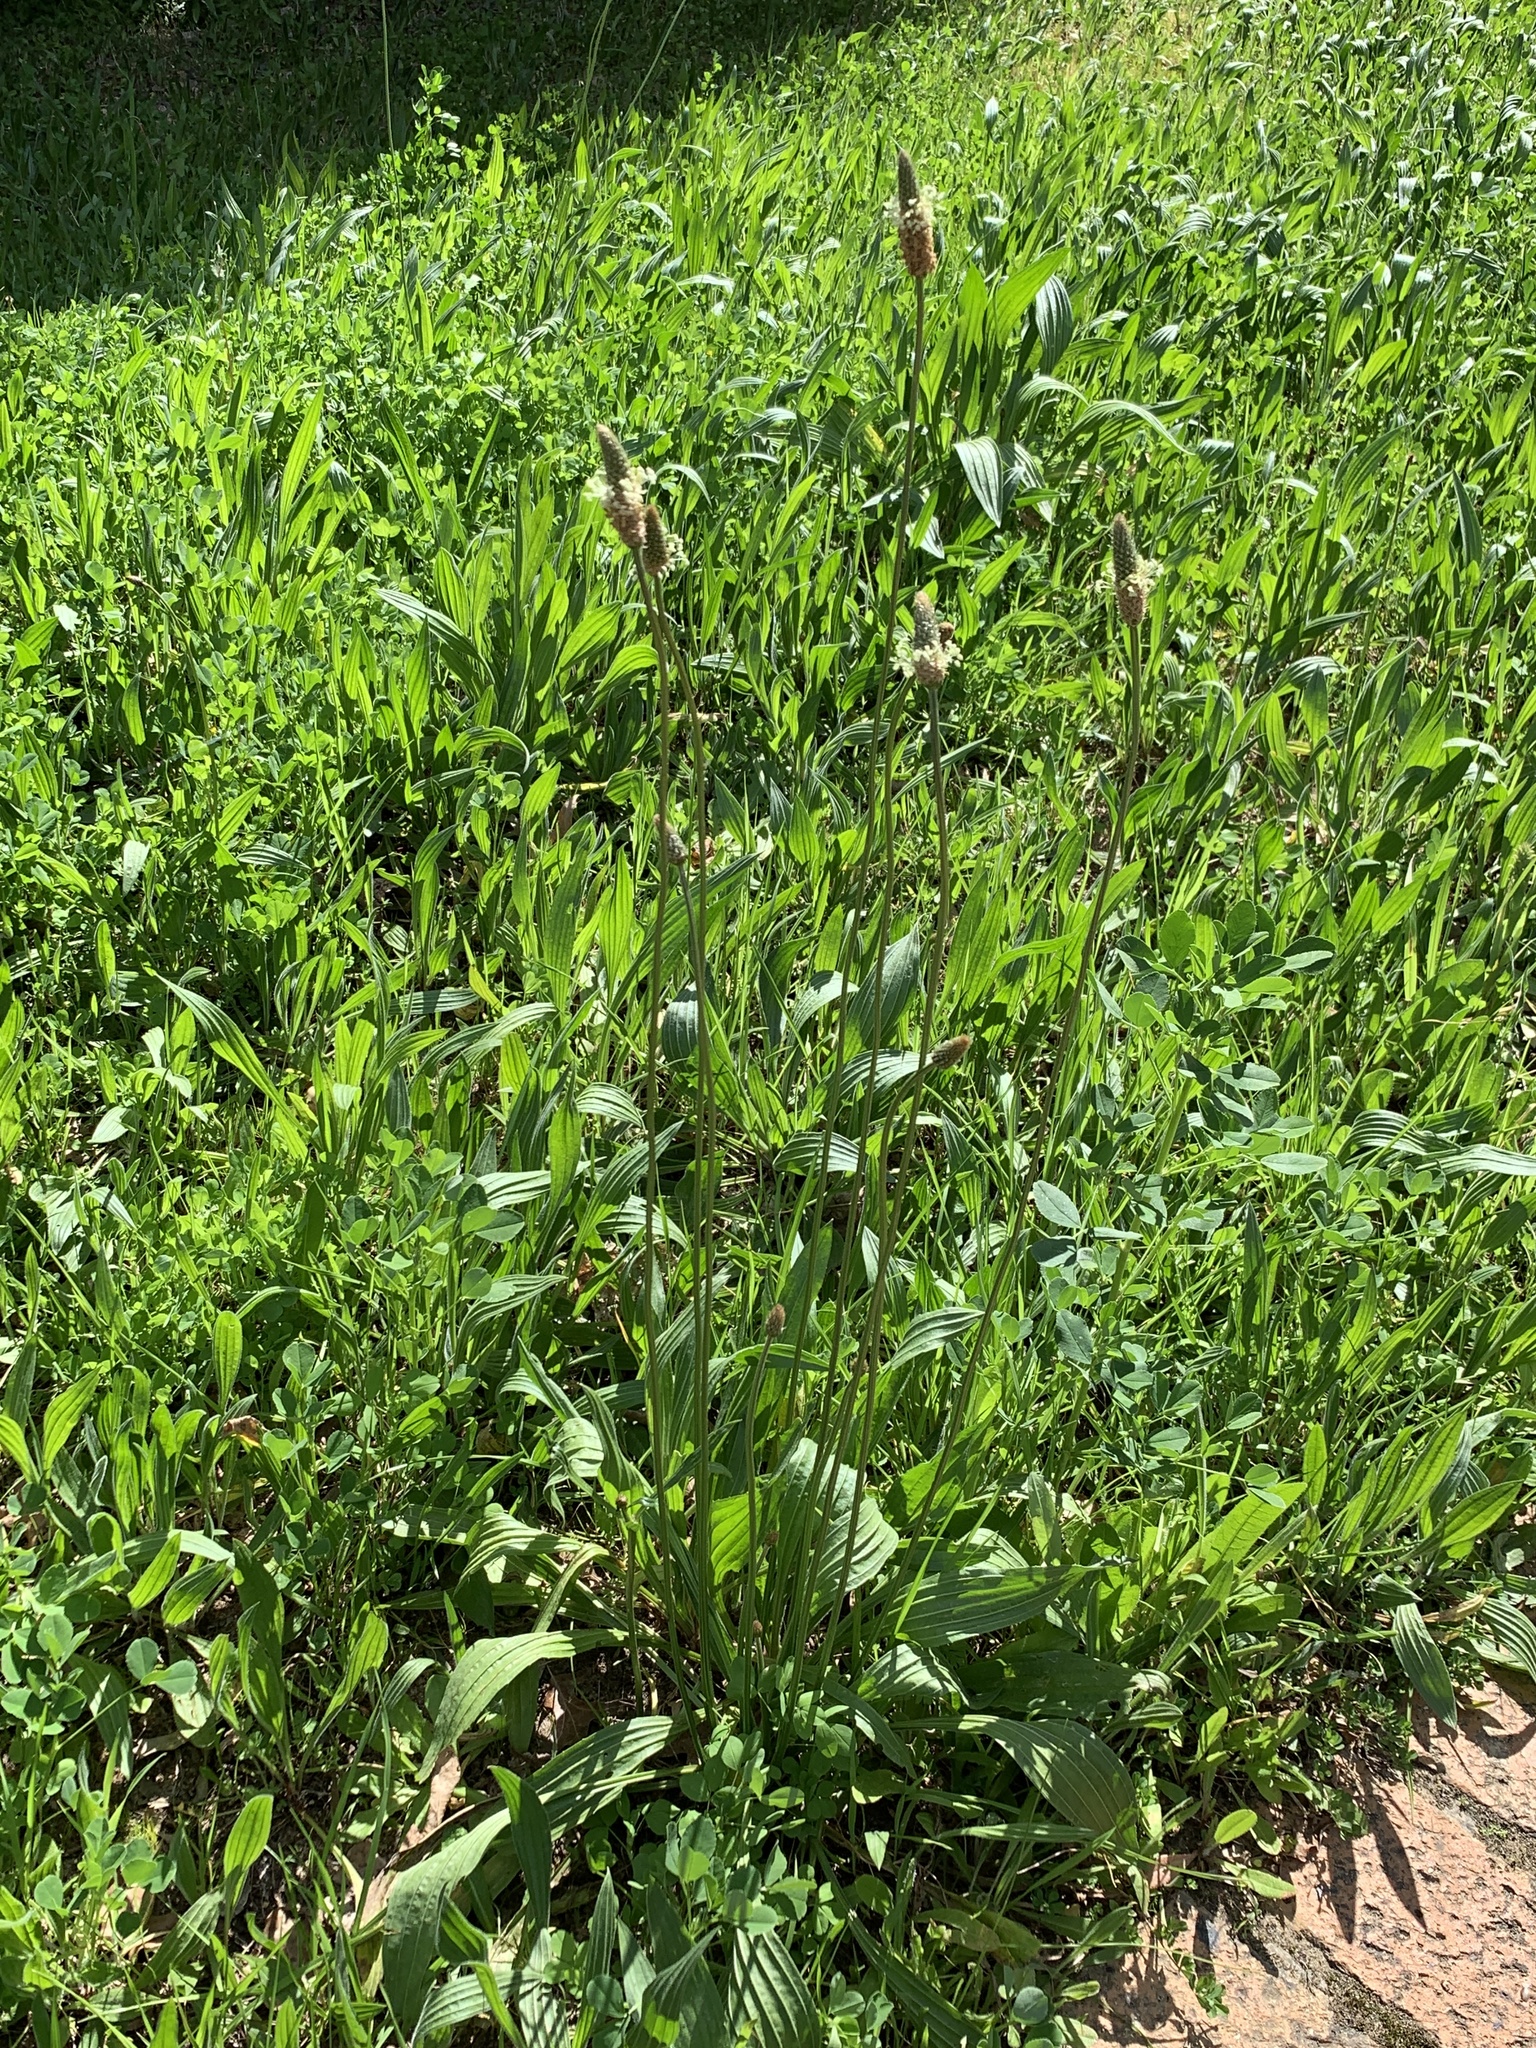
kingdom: Plantae
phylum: Tracheophyta
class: Magnoliopsida
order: Lamiales
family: Plantaginaceae
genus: Plantago
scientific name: Plantago lanceolata
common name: Ribwort plantain
